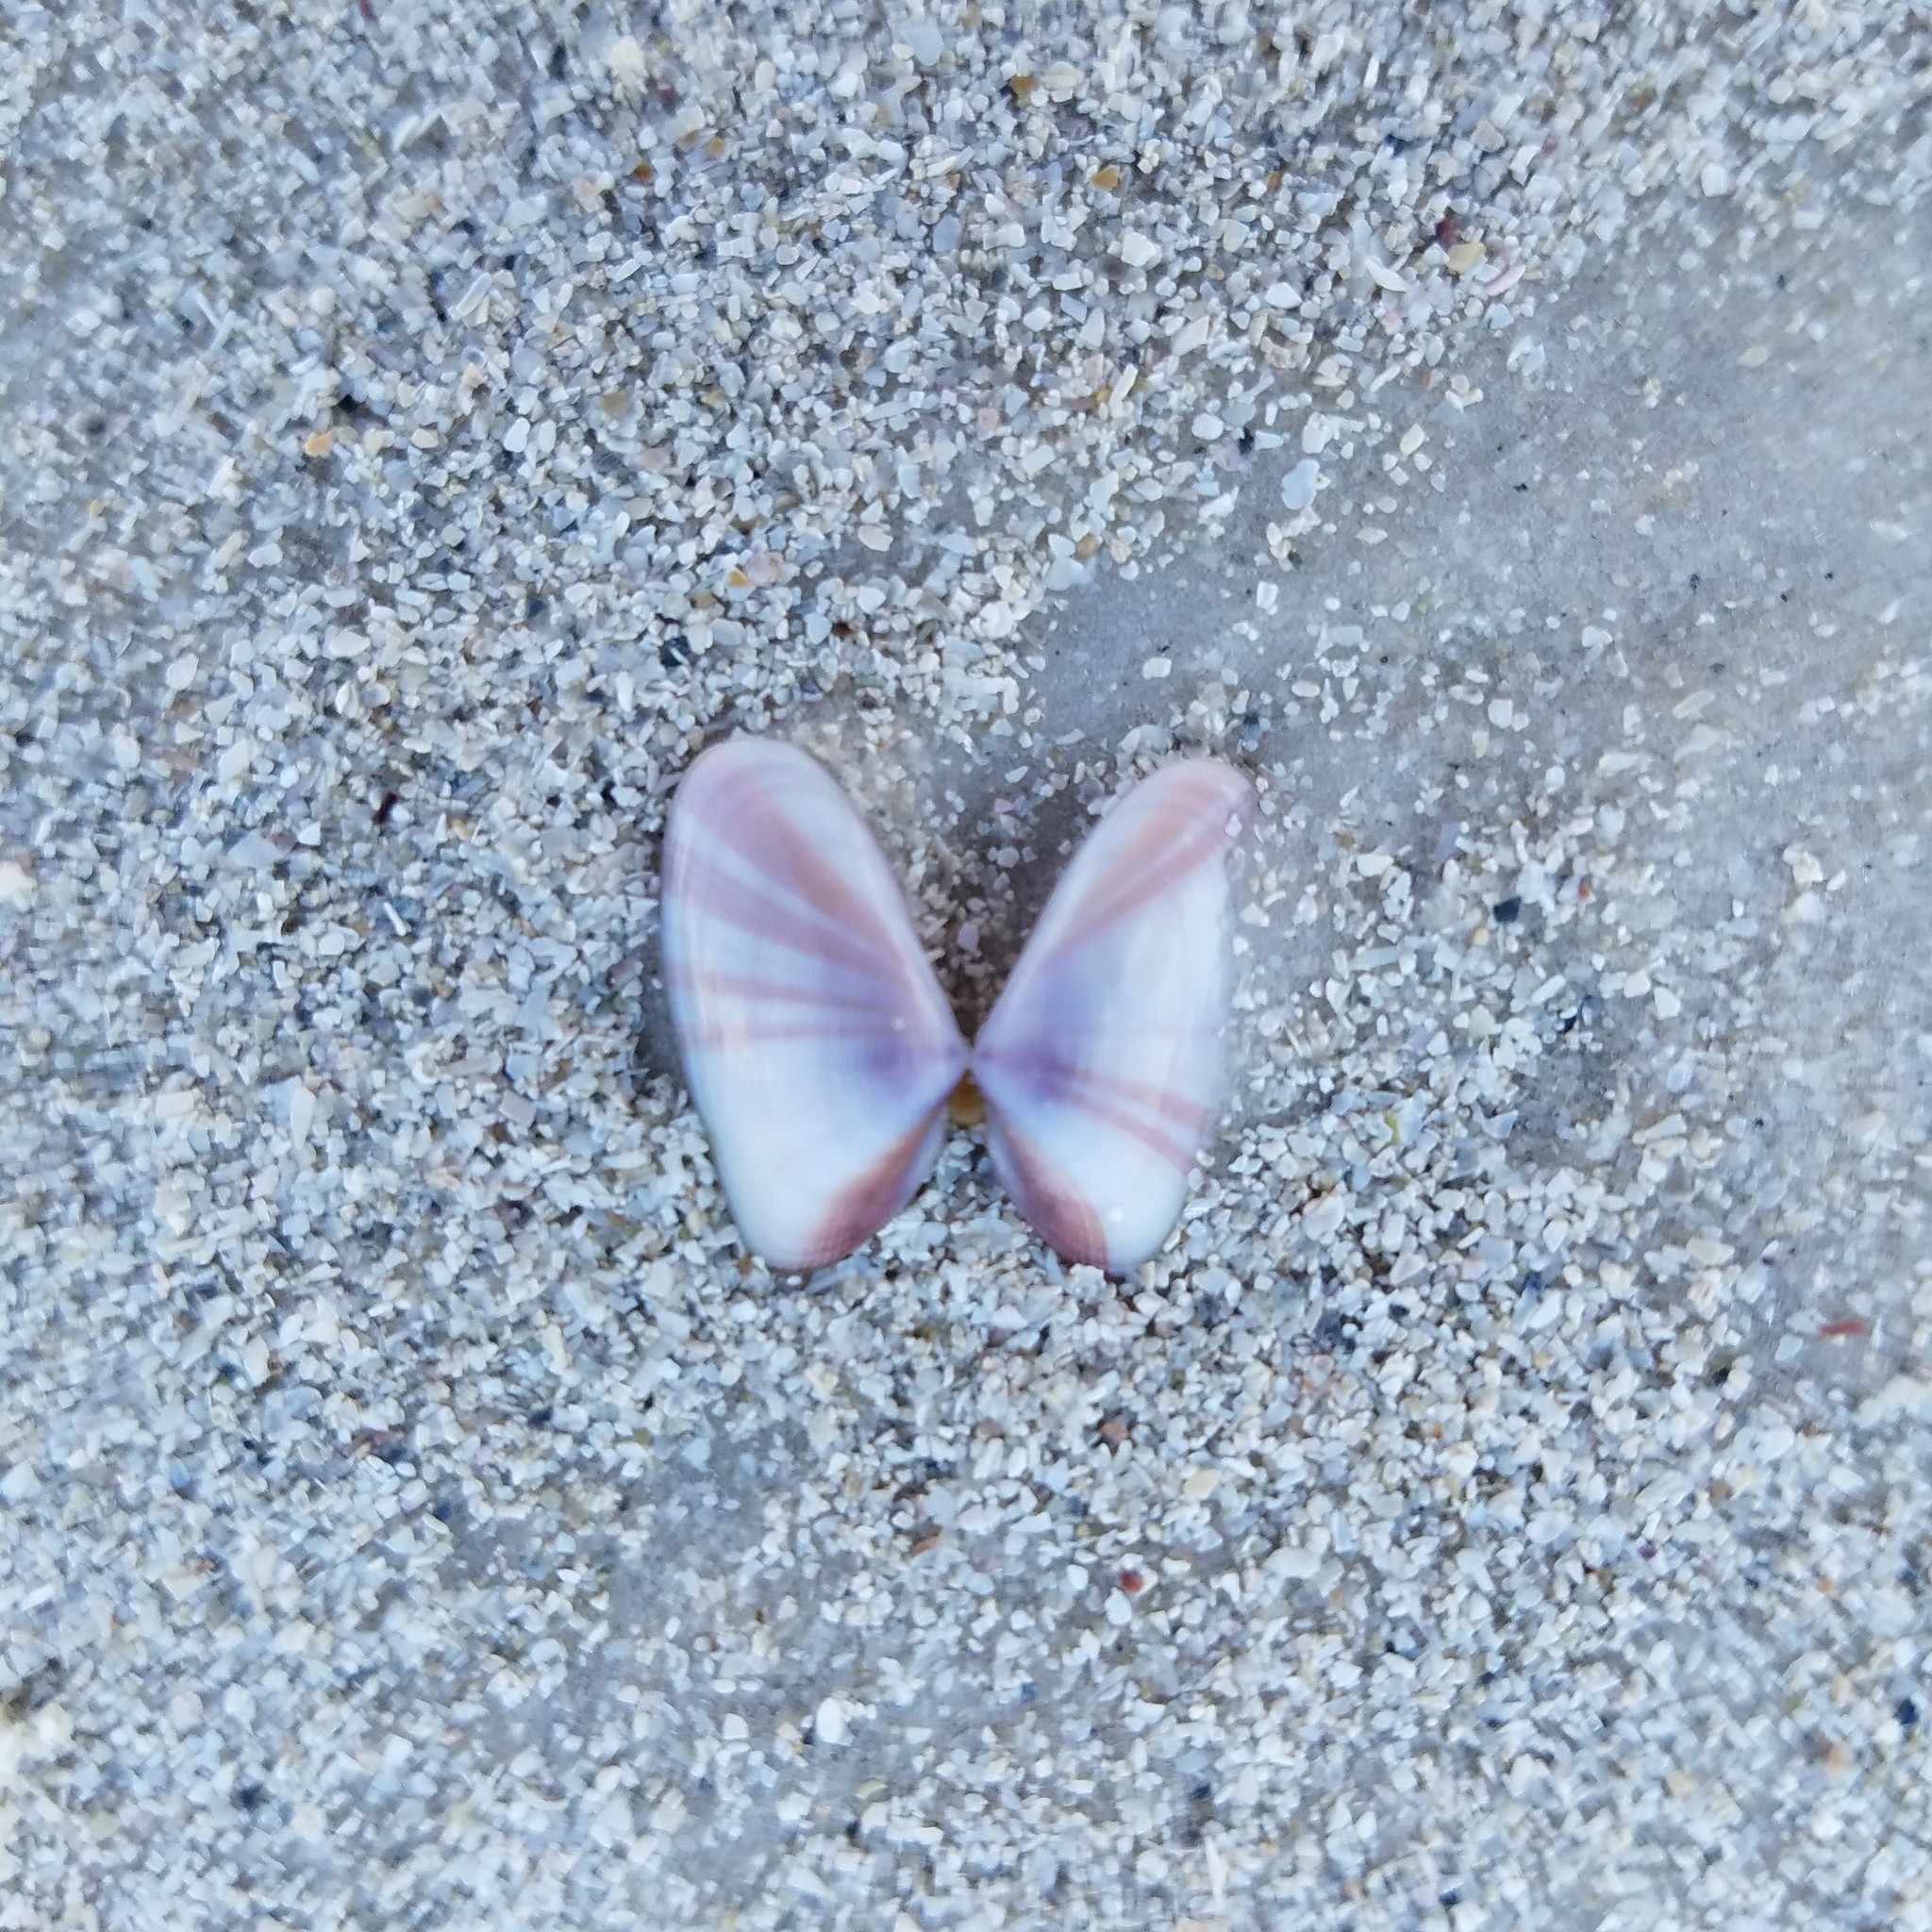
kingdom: Animalia
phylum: Mollusca
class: Bivalvia
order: Cardiida
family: Donacidae
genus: Donax
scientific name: Donax variabilis
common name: Butterfly shell
